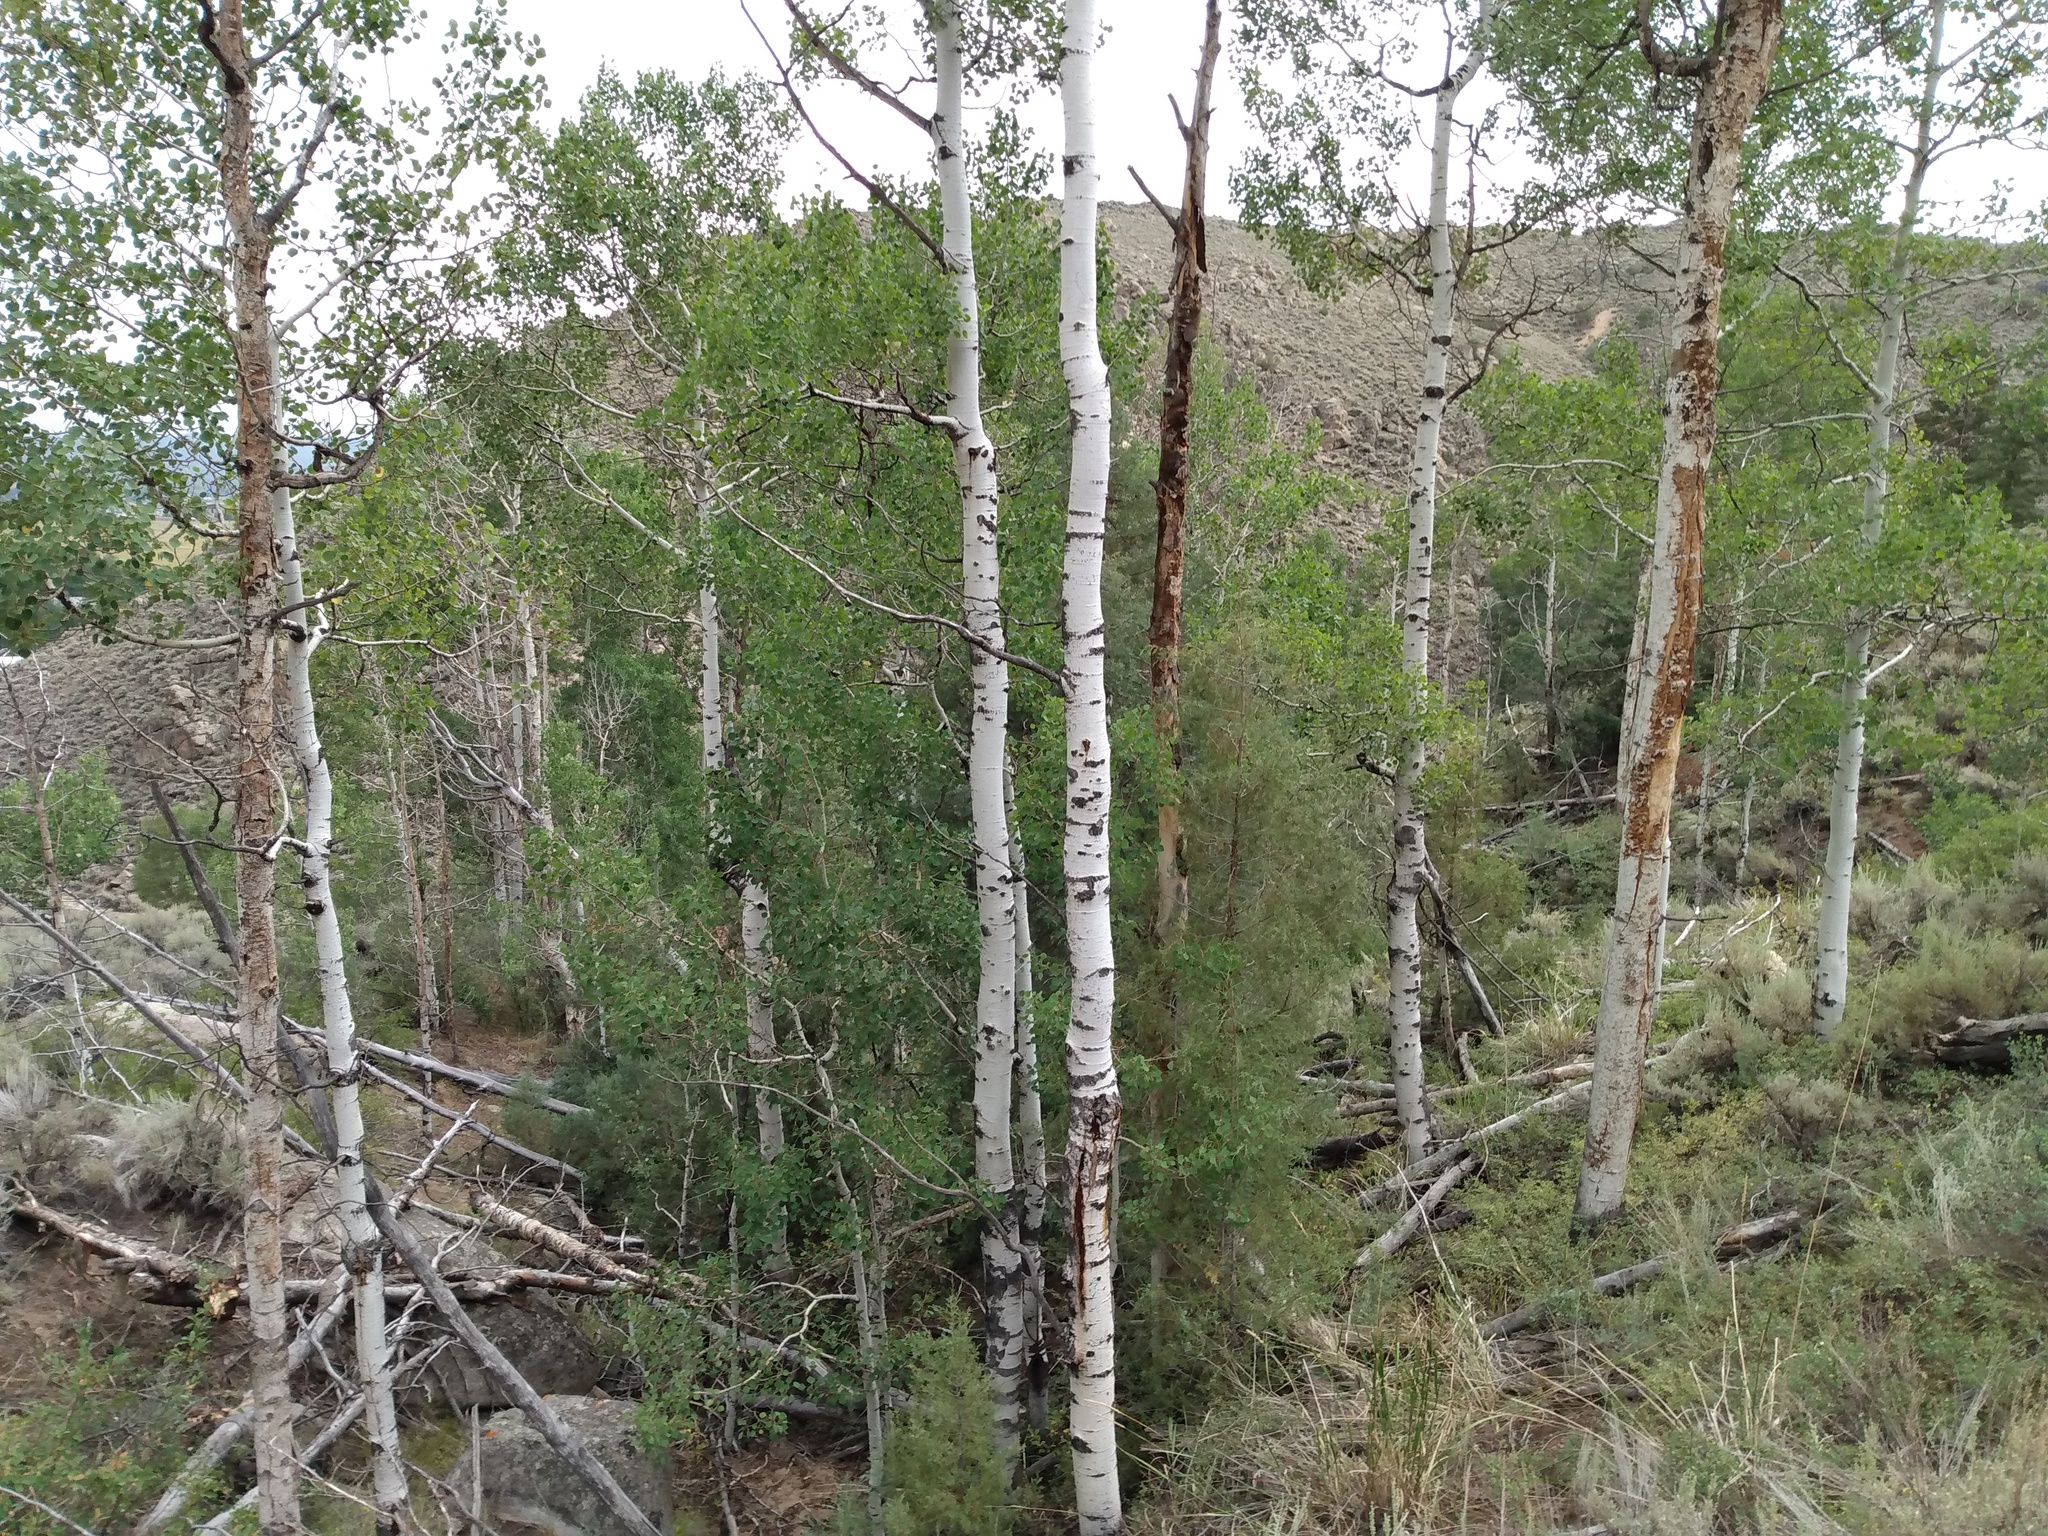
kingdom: Plantae
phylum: Tracheophyta
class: Magnoliopsida
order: Malpighiales
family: Salicaceae
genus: Populus
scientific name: Populus tremuloides
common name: Quaking aspen
